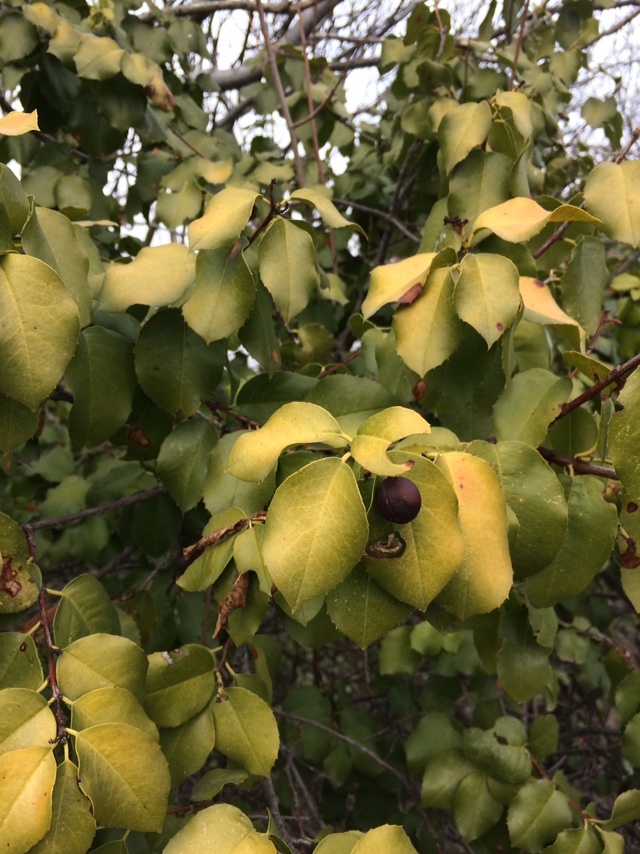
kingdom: Plantae
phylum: Tracheophyta
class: Magnoliopsida
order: Rosales
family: Rosaceae
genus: Prunus
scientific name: Prunus ilicifolia
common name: Hollyleaf cherry
